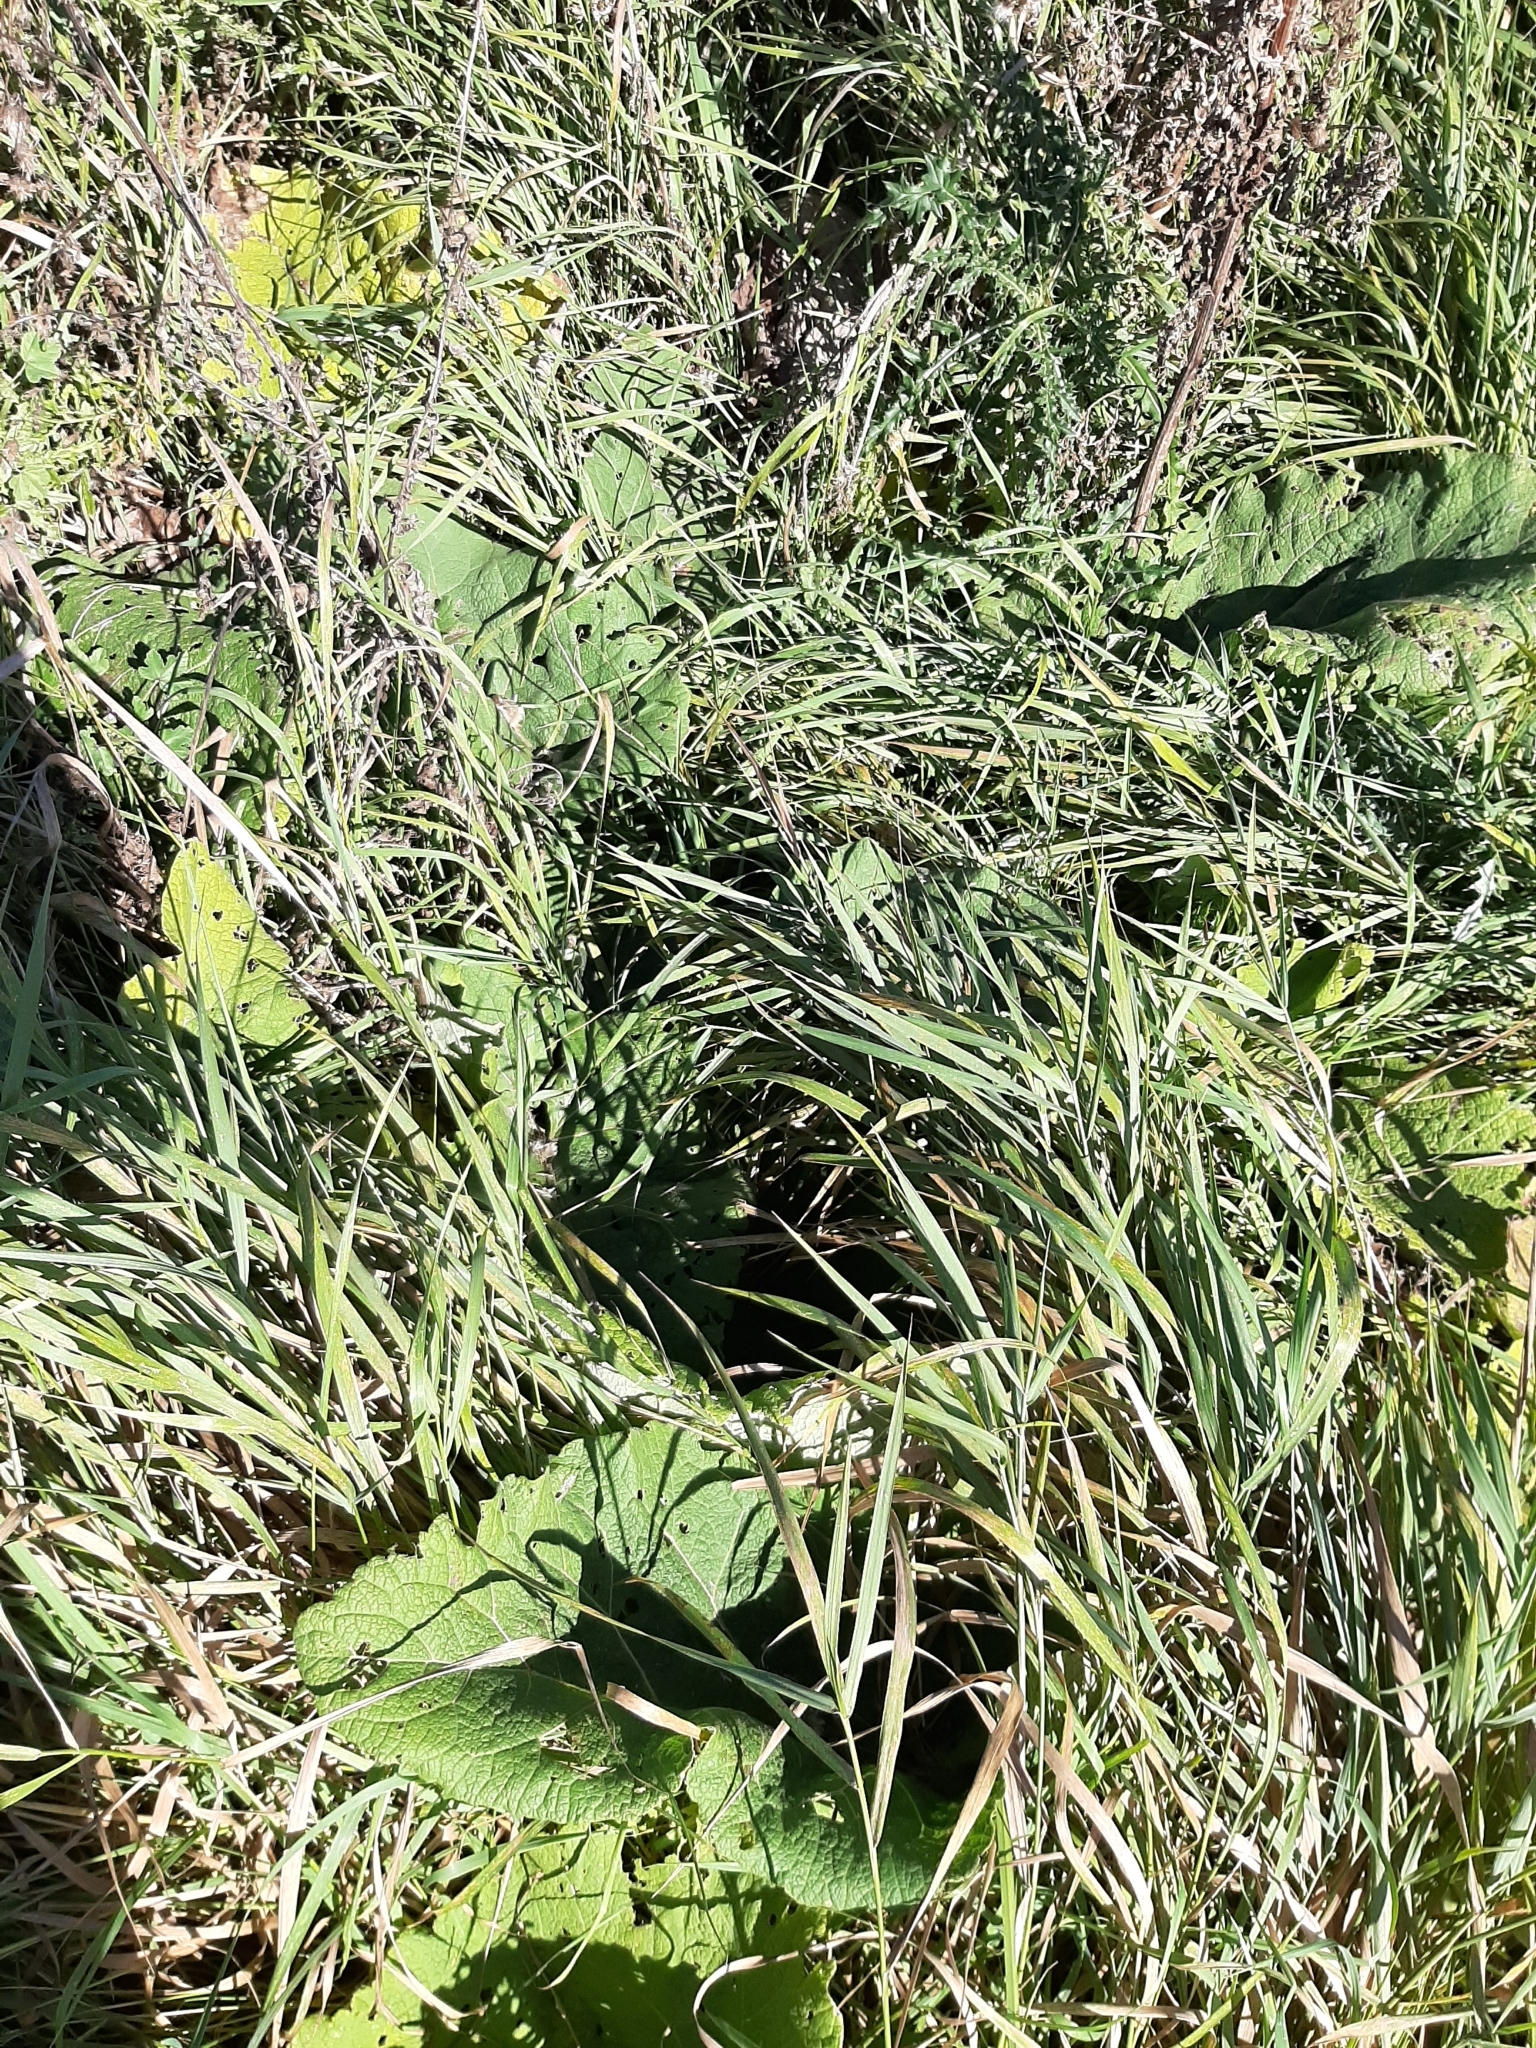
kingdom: Plantae
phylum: Tracheophyta
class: Magnoliopsida
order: Asterales
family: Asteraceae
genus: Arctium
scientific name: Arctium minus
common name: Lesser burdock
